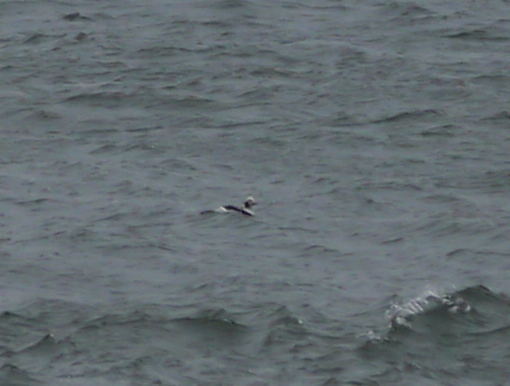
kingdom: Animalia
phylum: Chordata
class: Aves
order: Anseriformes
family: Anatidae
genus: Clangula
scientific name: Clangula hyemalis
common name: Long-tailed duck
